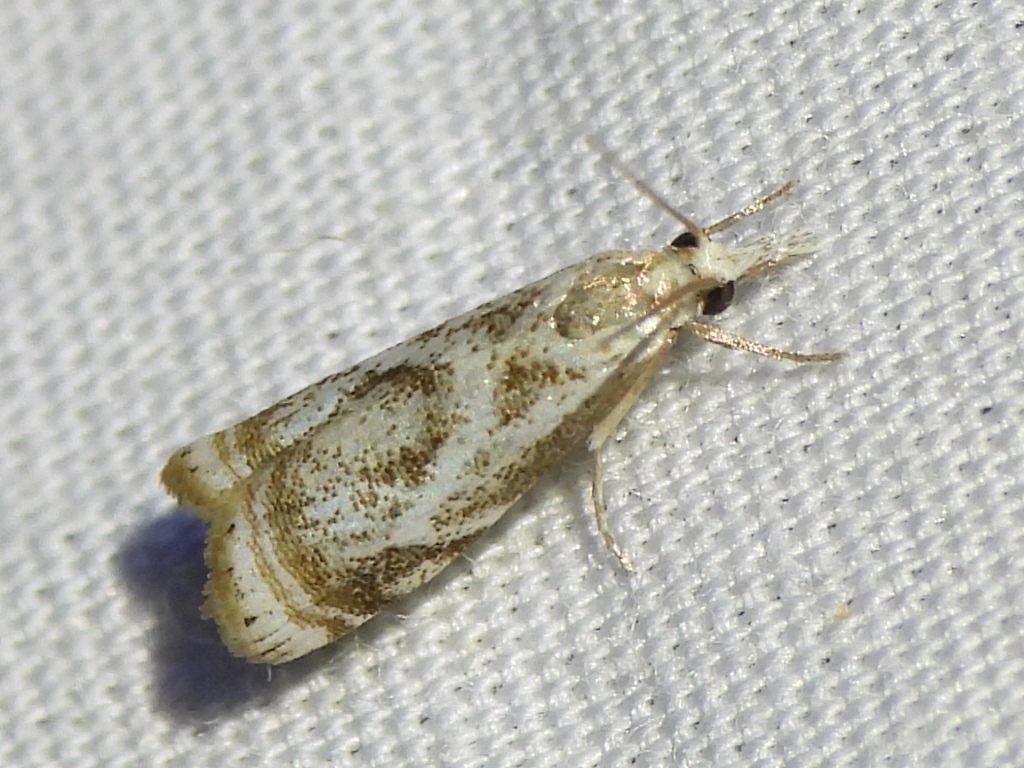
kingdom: Animalia
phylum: Arthropoda
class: Insecta
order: Lepidoptera
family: Crambidae
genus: Microcrambus
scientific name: Microcrambus elegans
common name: Elegant grass-veneer
